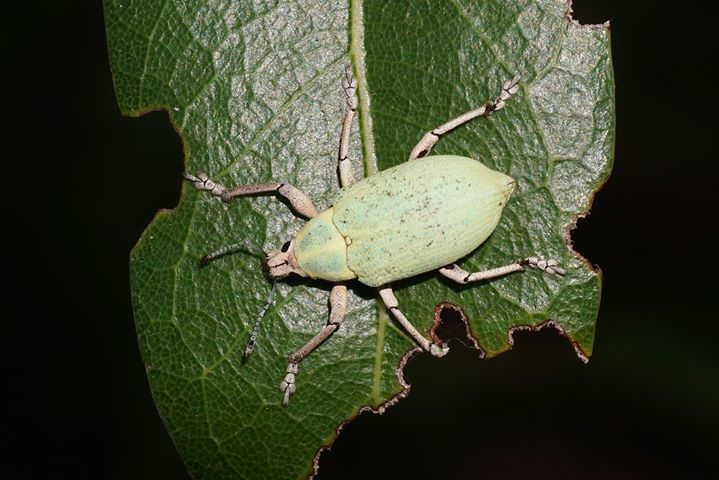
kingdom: Animalia
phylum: Arthropoda
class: Insecta
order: Coleoptera
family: Curculionidae
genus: Pachnaeus
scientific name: Pachnaeus litus
